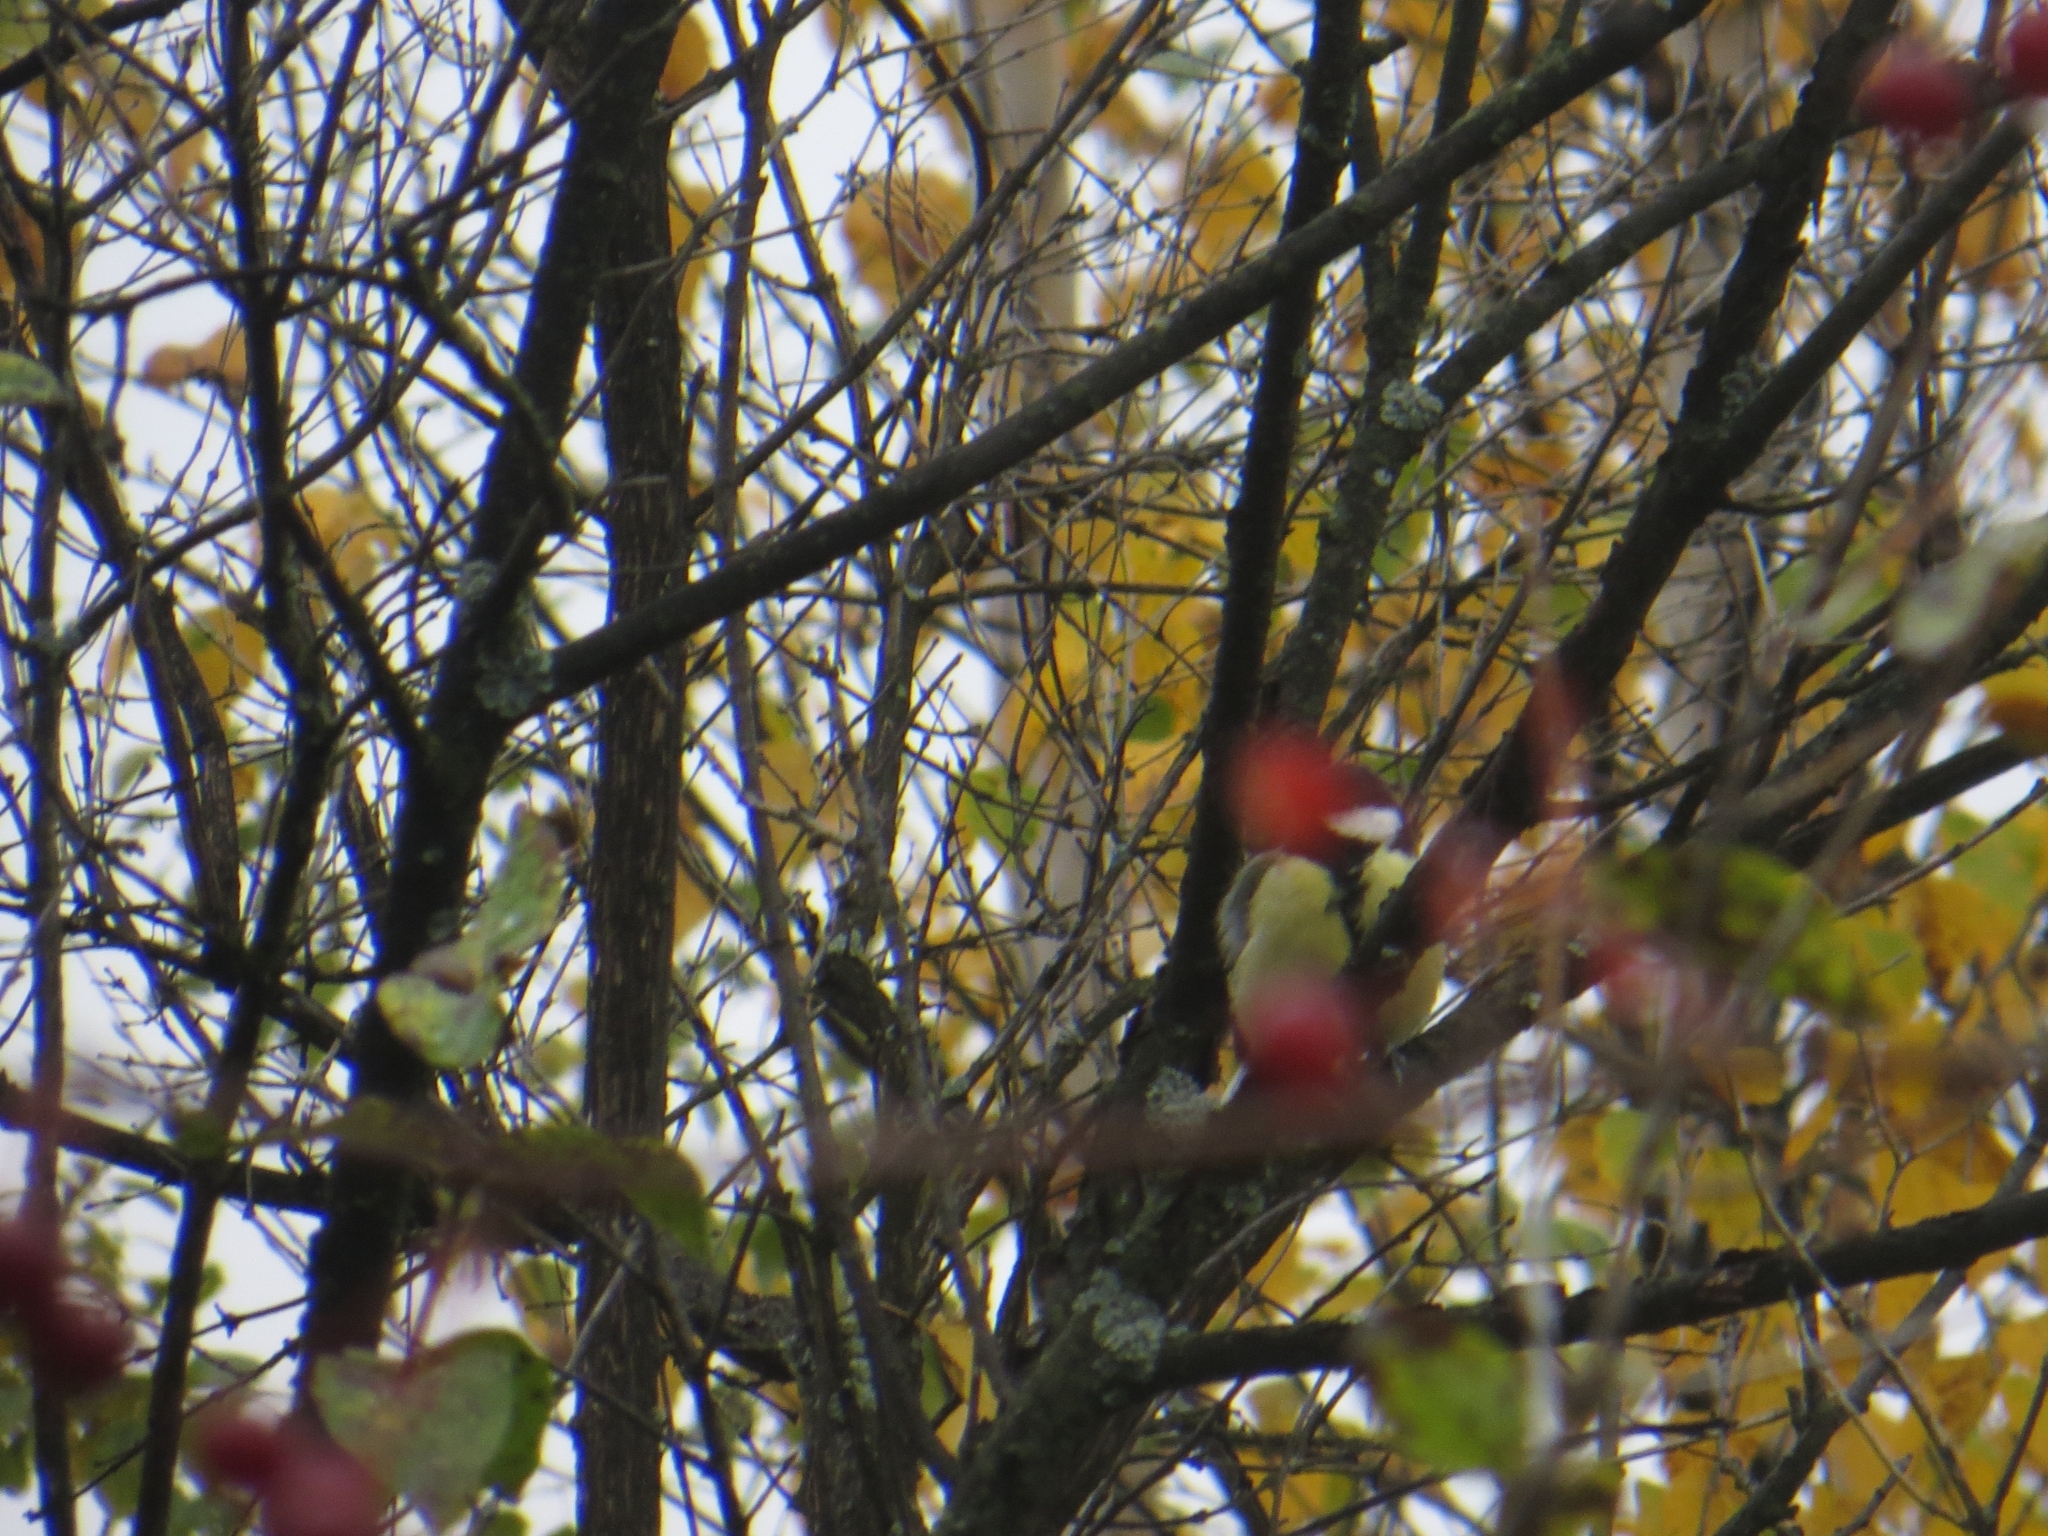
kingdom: Animalia
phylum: Chordata
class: Aves
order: Passeriformes
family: Paridae
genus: Parus
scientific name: Parus major
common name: Great tit
